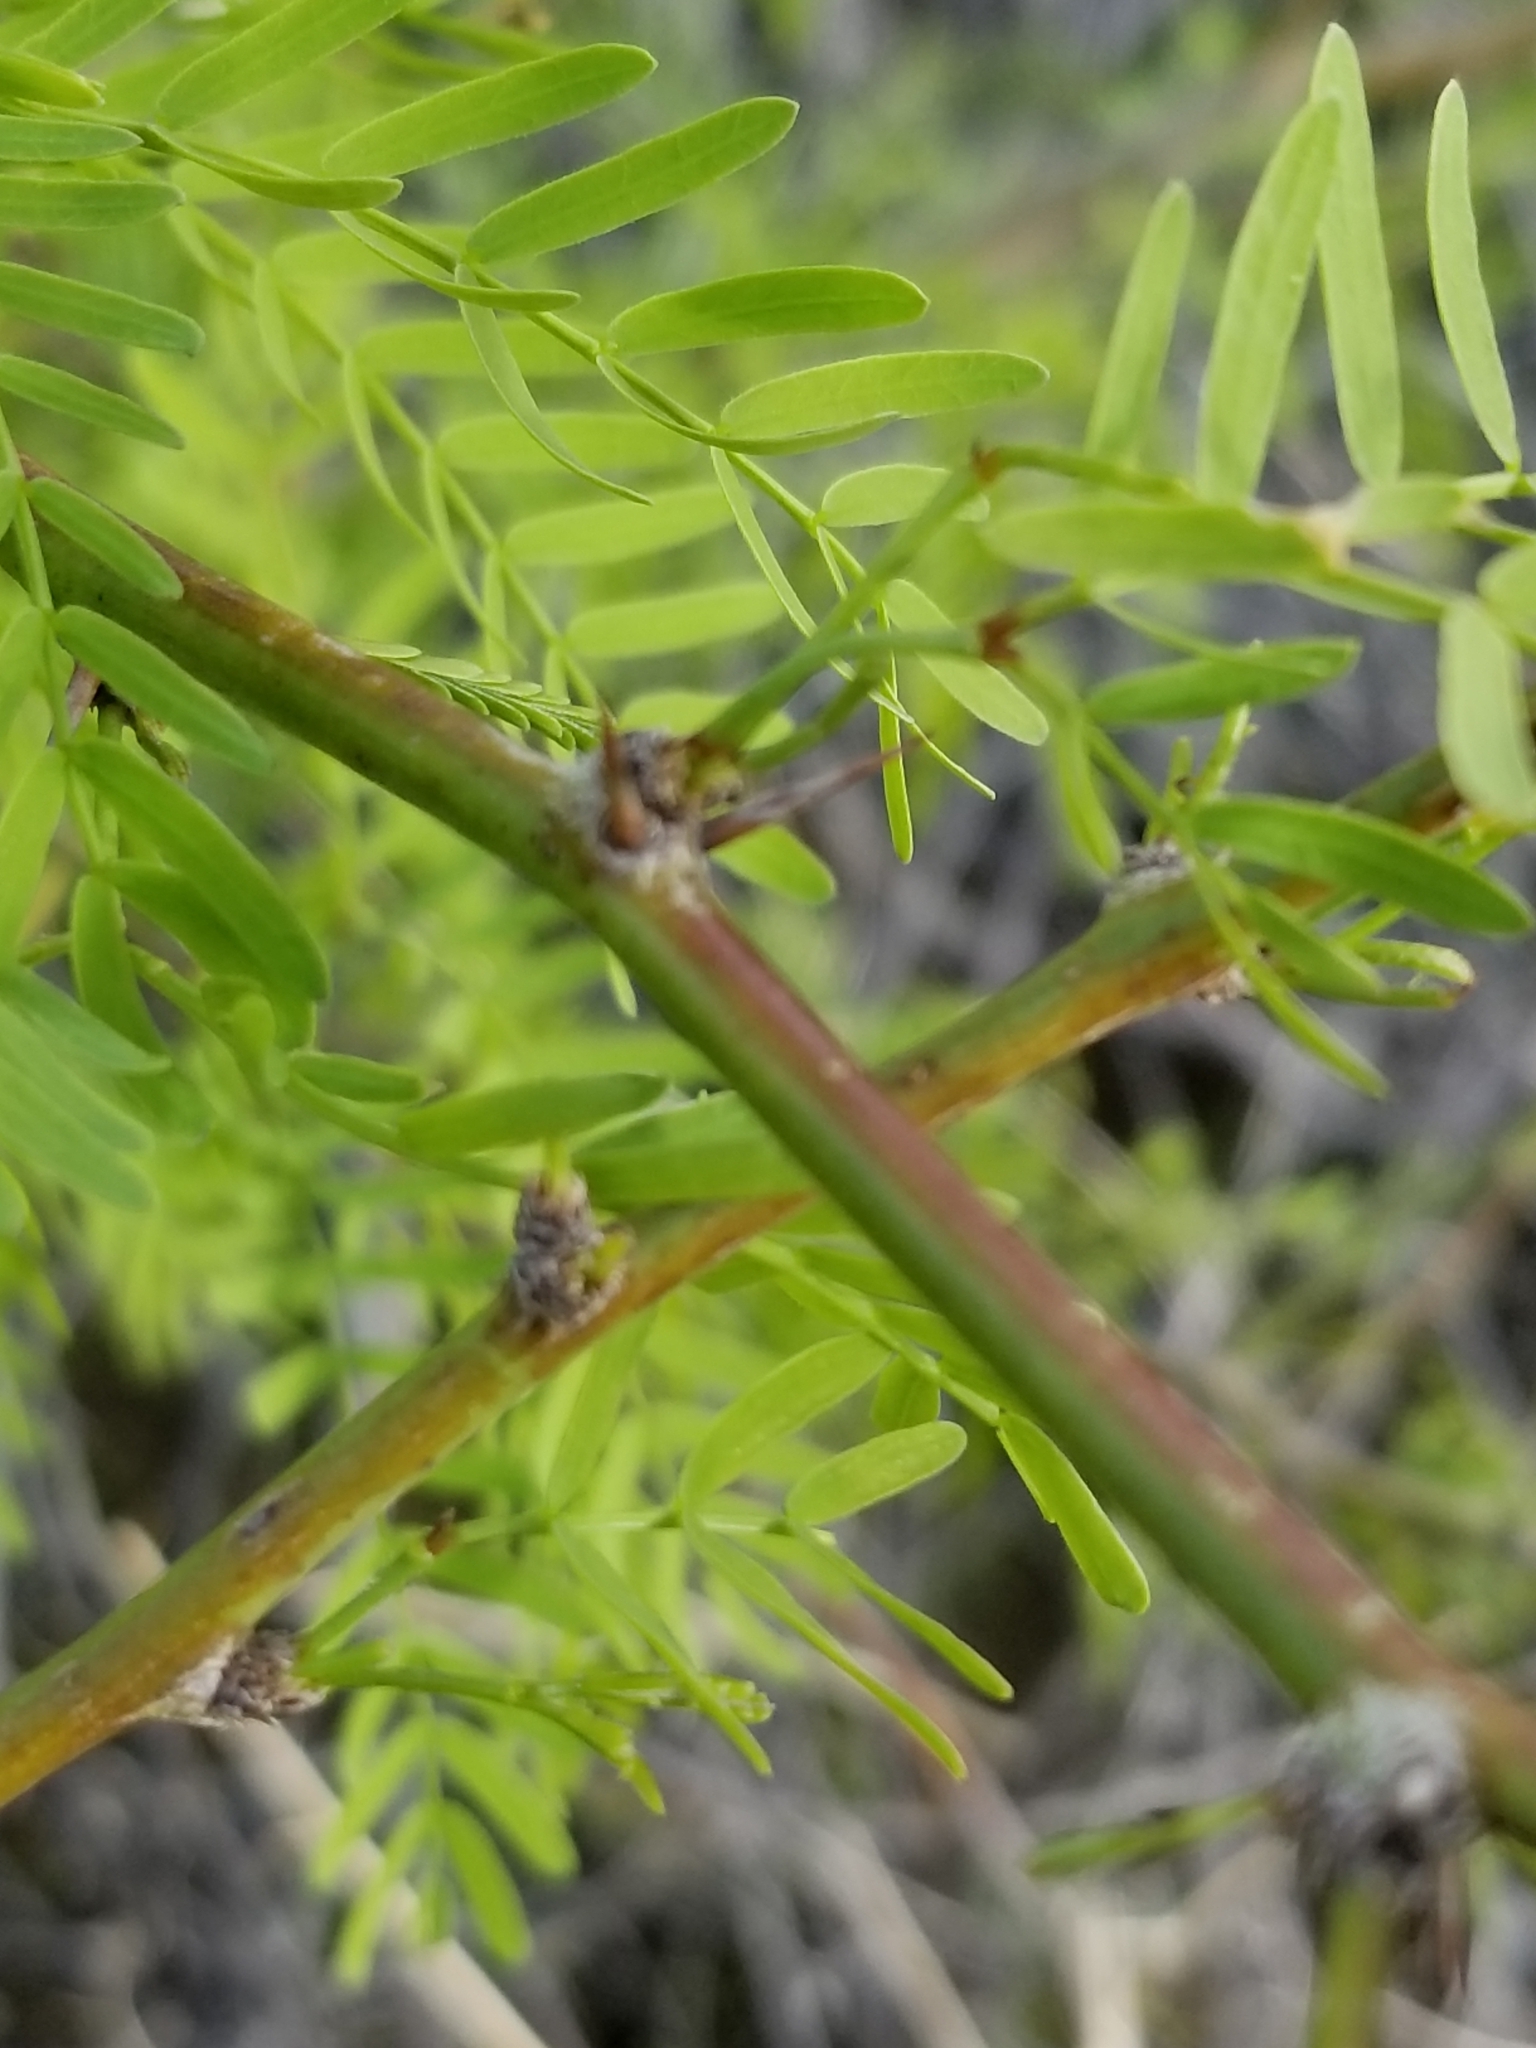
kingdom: Plantae
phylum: Tracheophyta
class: Magnoliopsida
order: Fabales
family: Fabaceae
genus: Prosopis
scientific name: Prosopis pubescens
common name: Screw-bean
